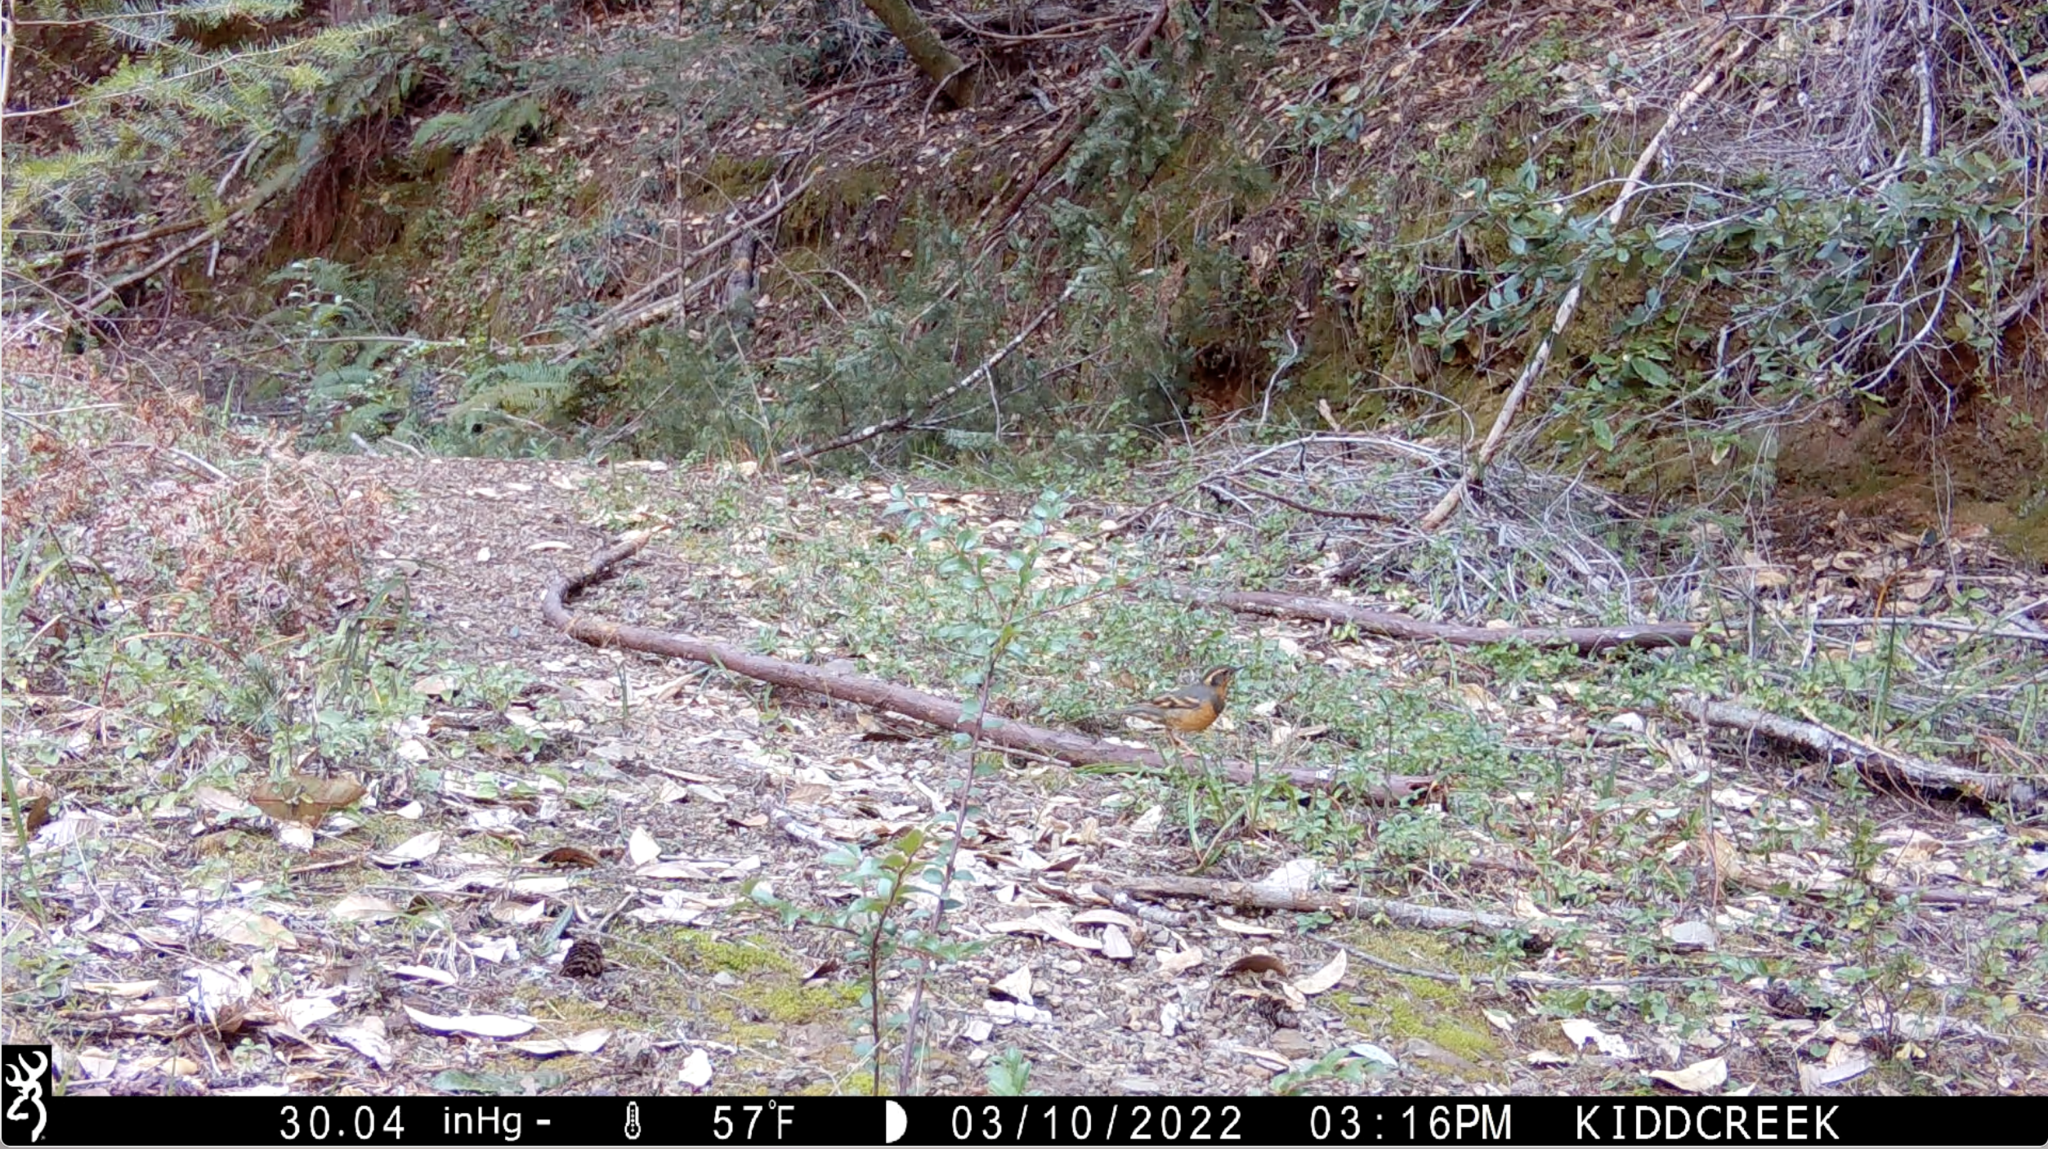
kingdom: Animalia
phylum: Chordata
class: Aves
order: Passeriformes
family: Turdidae
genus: Ixoreus
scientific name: Ixoreus naevius
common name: Varied thrush
